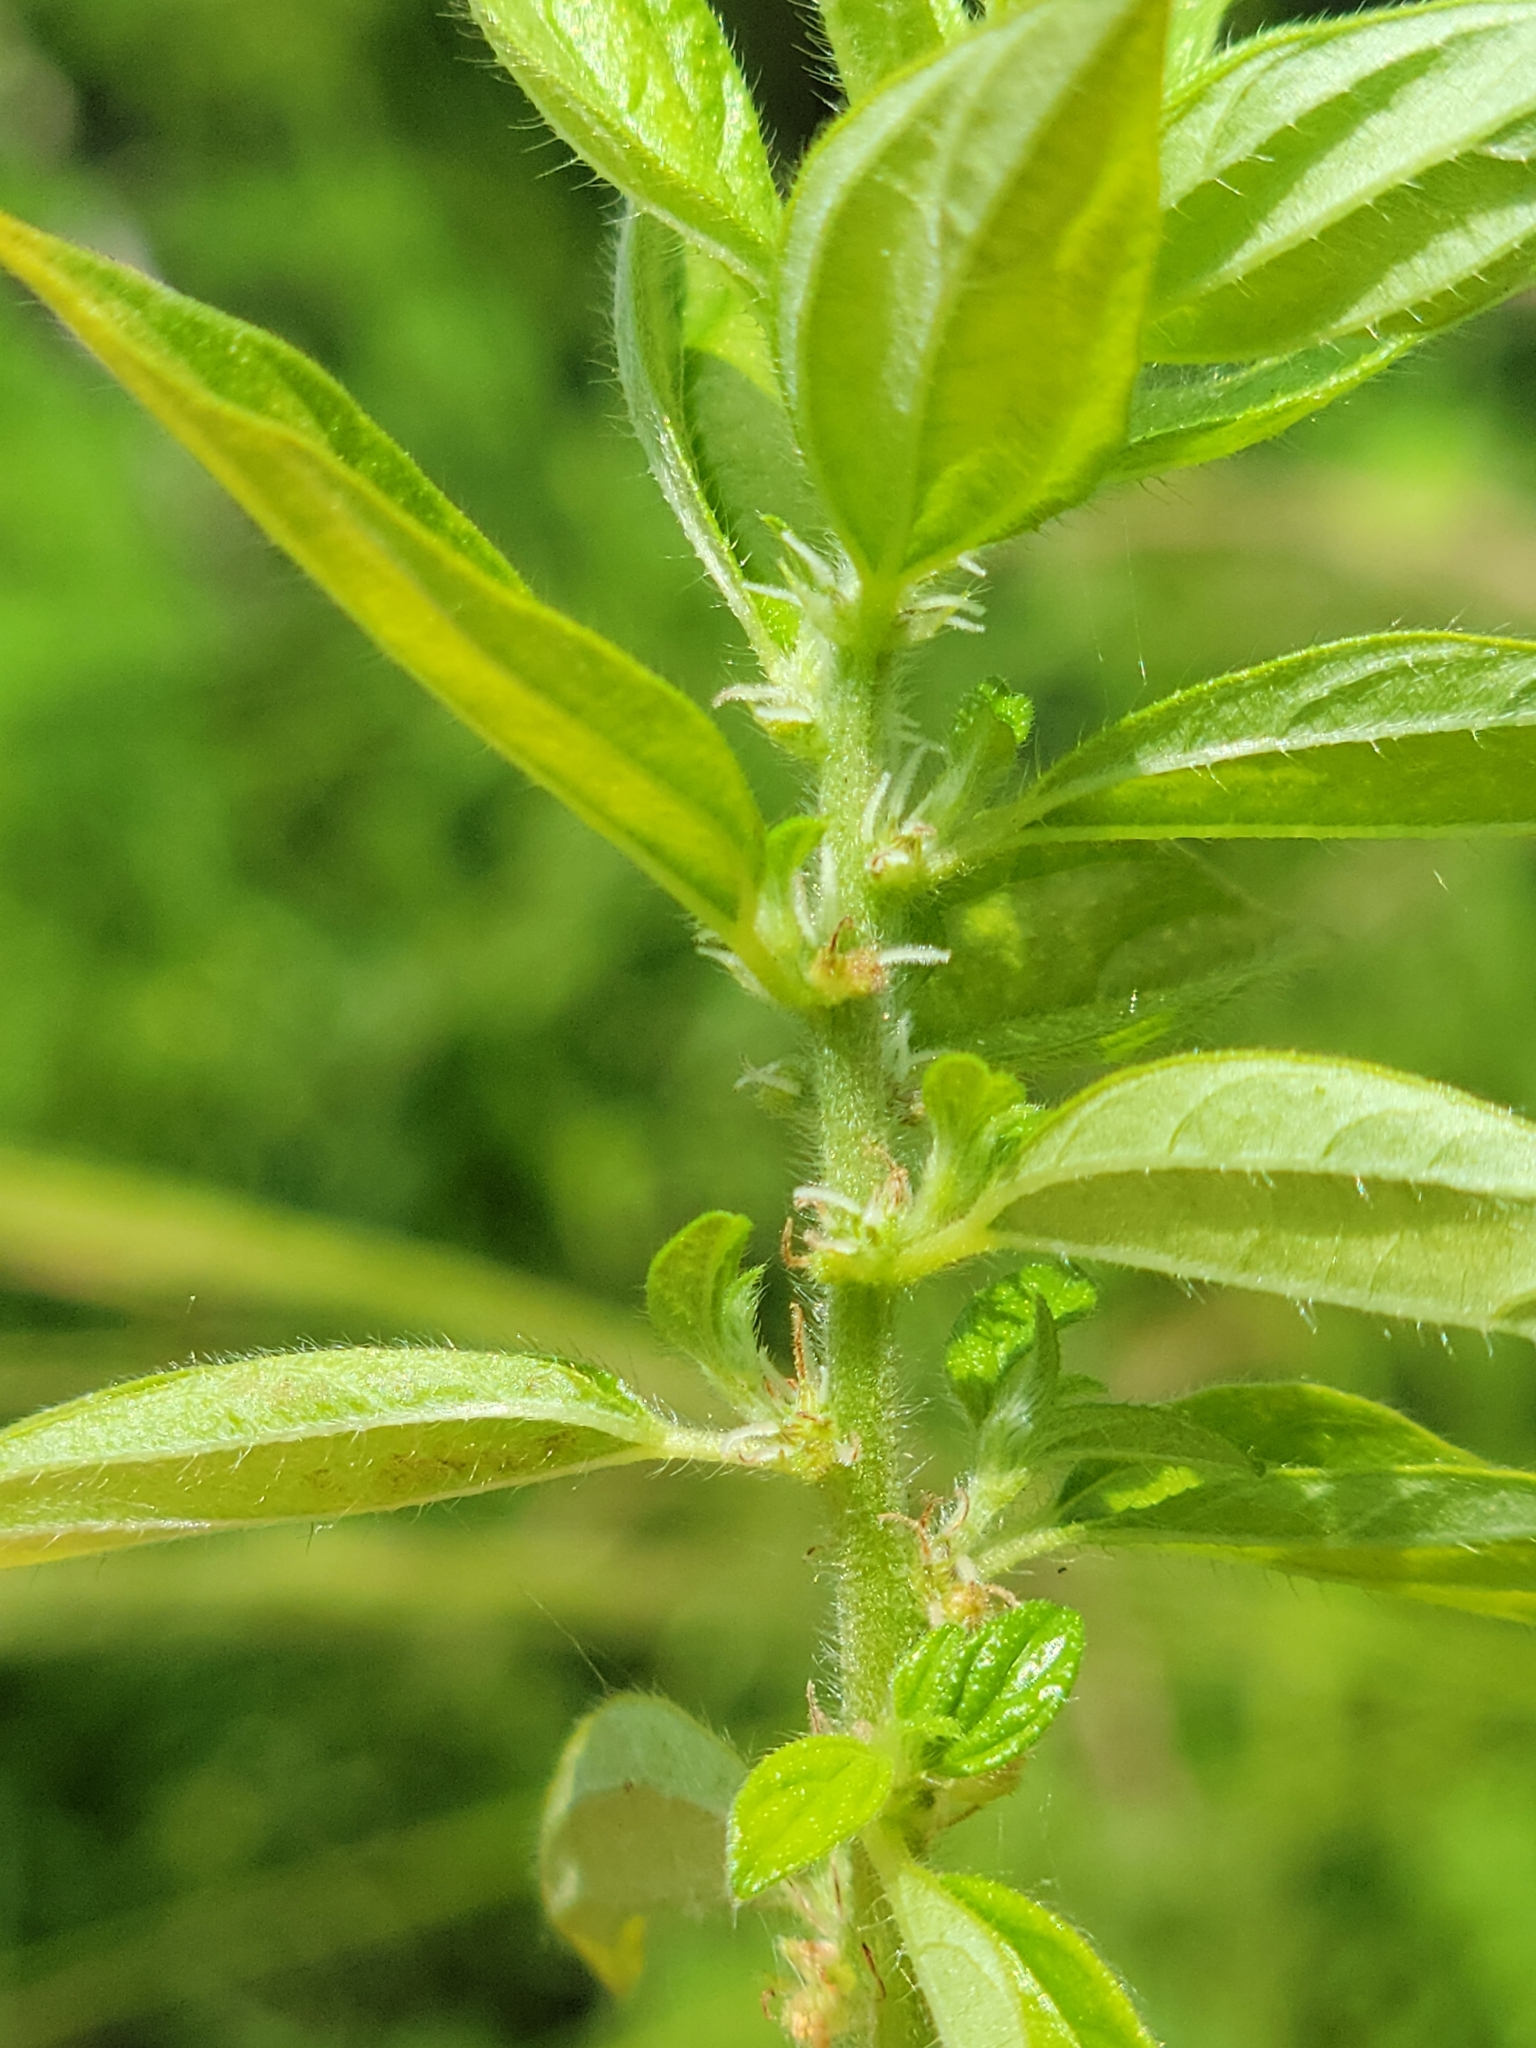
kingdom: Plantae
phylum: Tracheophyta
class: Magnoliopsida
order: Rosales
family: Urticaceae
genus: Pouzolzia
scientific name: Pouzolzia zeylanica
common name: Graceful pouzolzsbush
